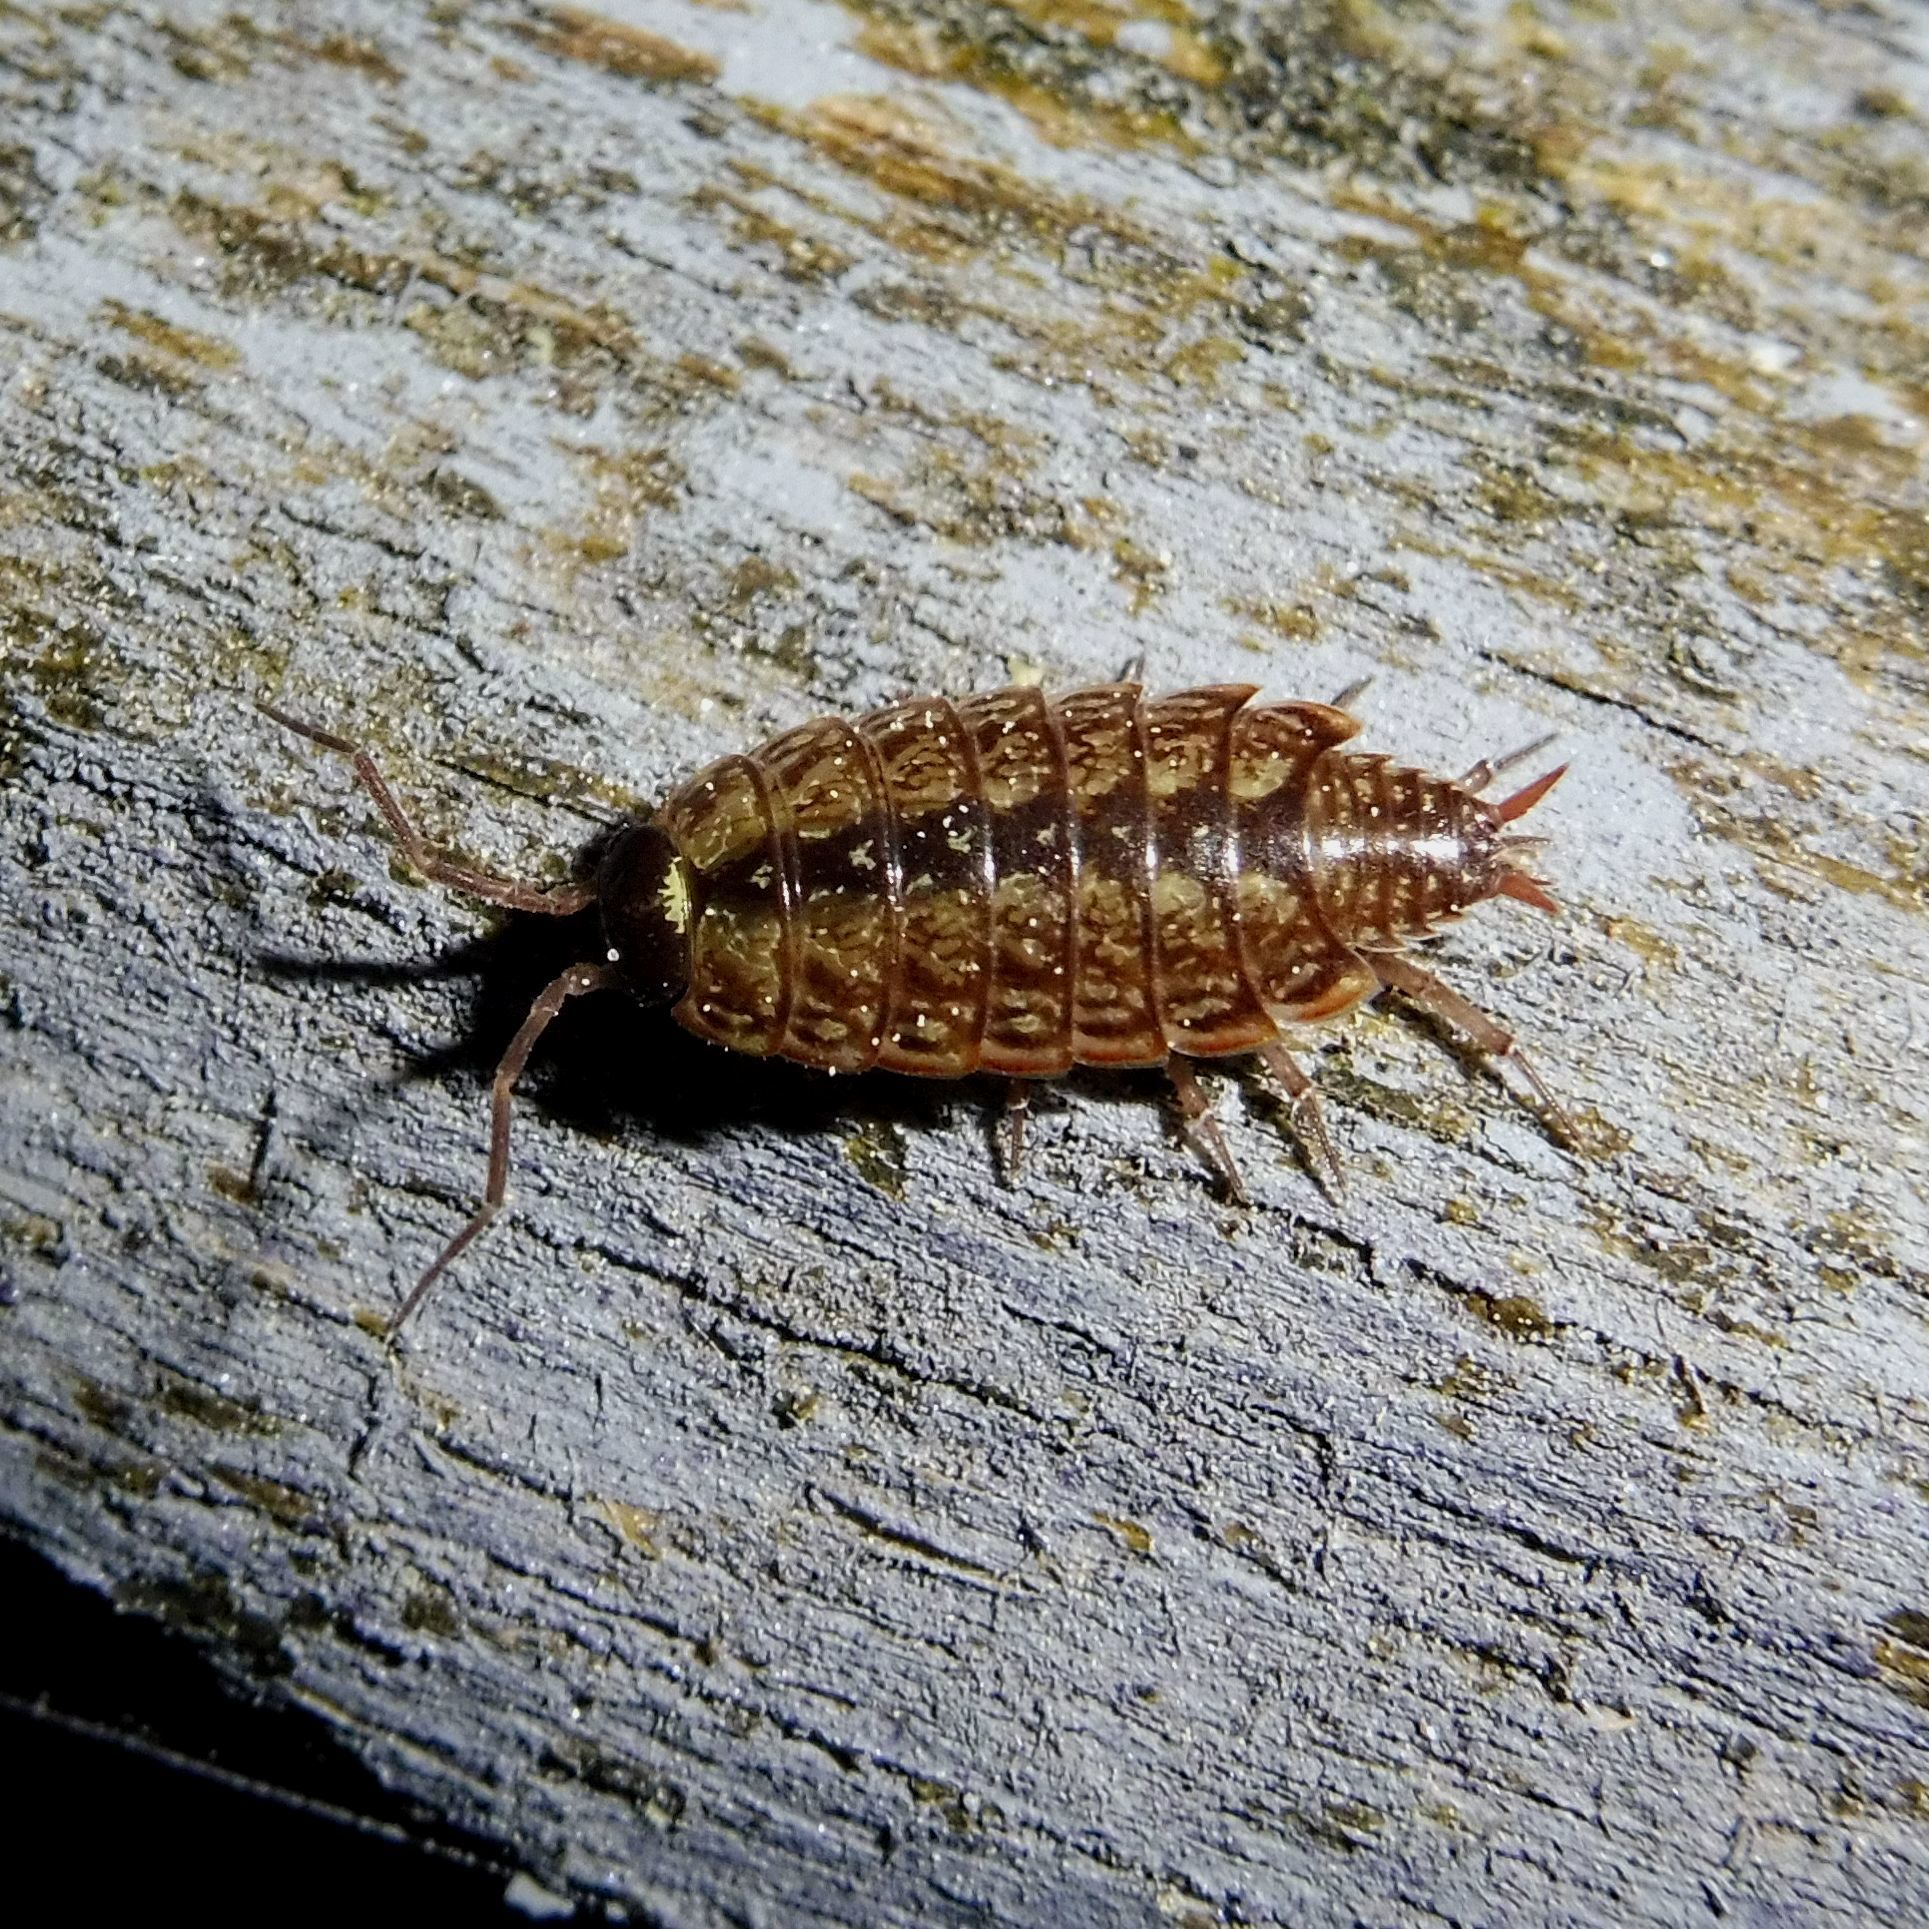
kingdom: Animalia
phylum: Arthropoda
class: Malacostraca
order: Isopoda
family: Philosciidae
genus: Philoscia
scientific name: Philoscia muscorum
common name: Common striped woodlouse
